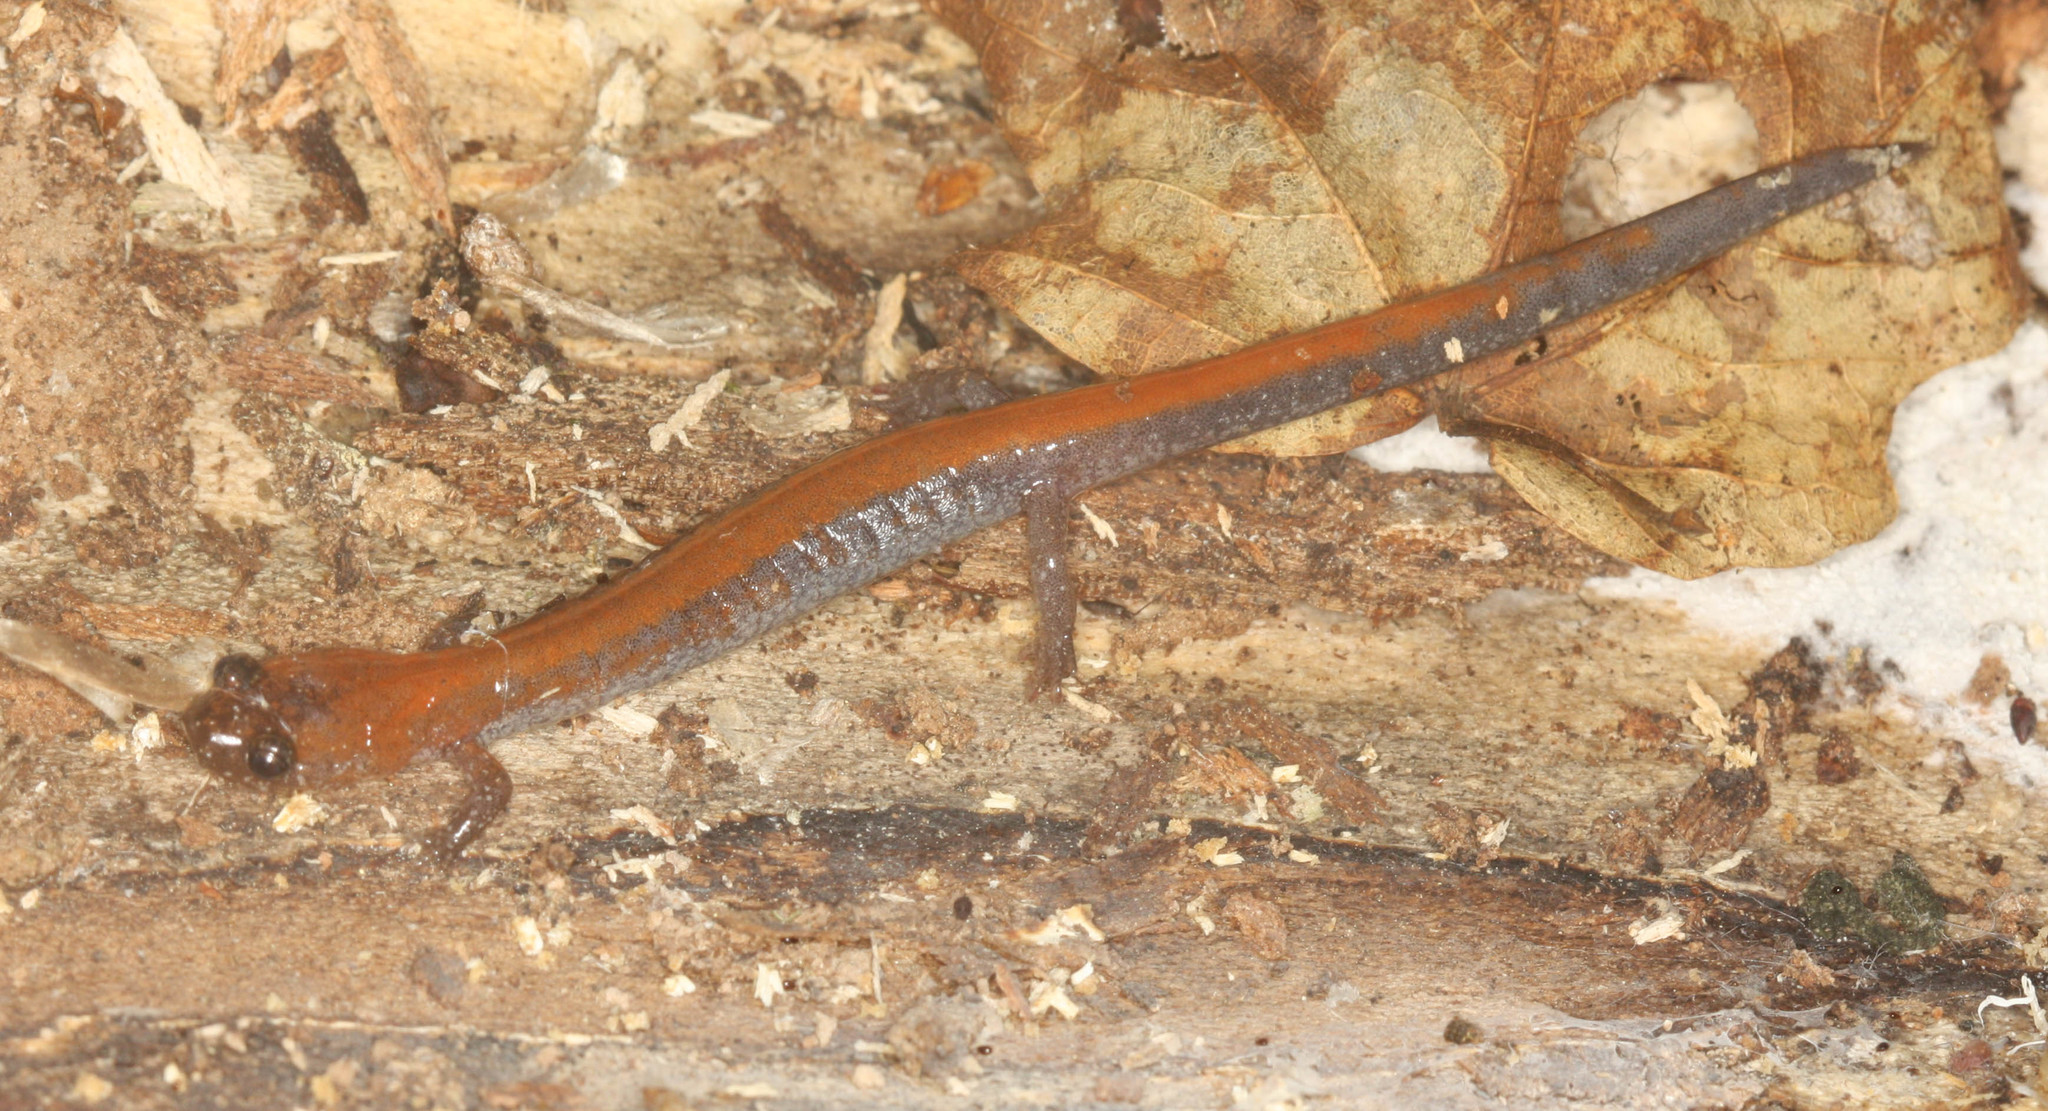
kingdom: Animalia
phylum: Chordata
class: Amphibia
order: Caudata
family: Plethodontidae
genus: Plethodon
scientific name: Plethodon cinereus
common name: Redback salamander
